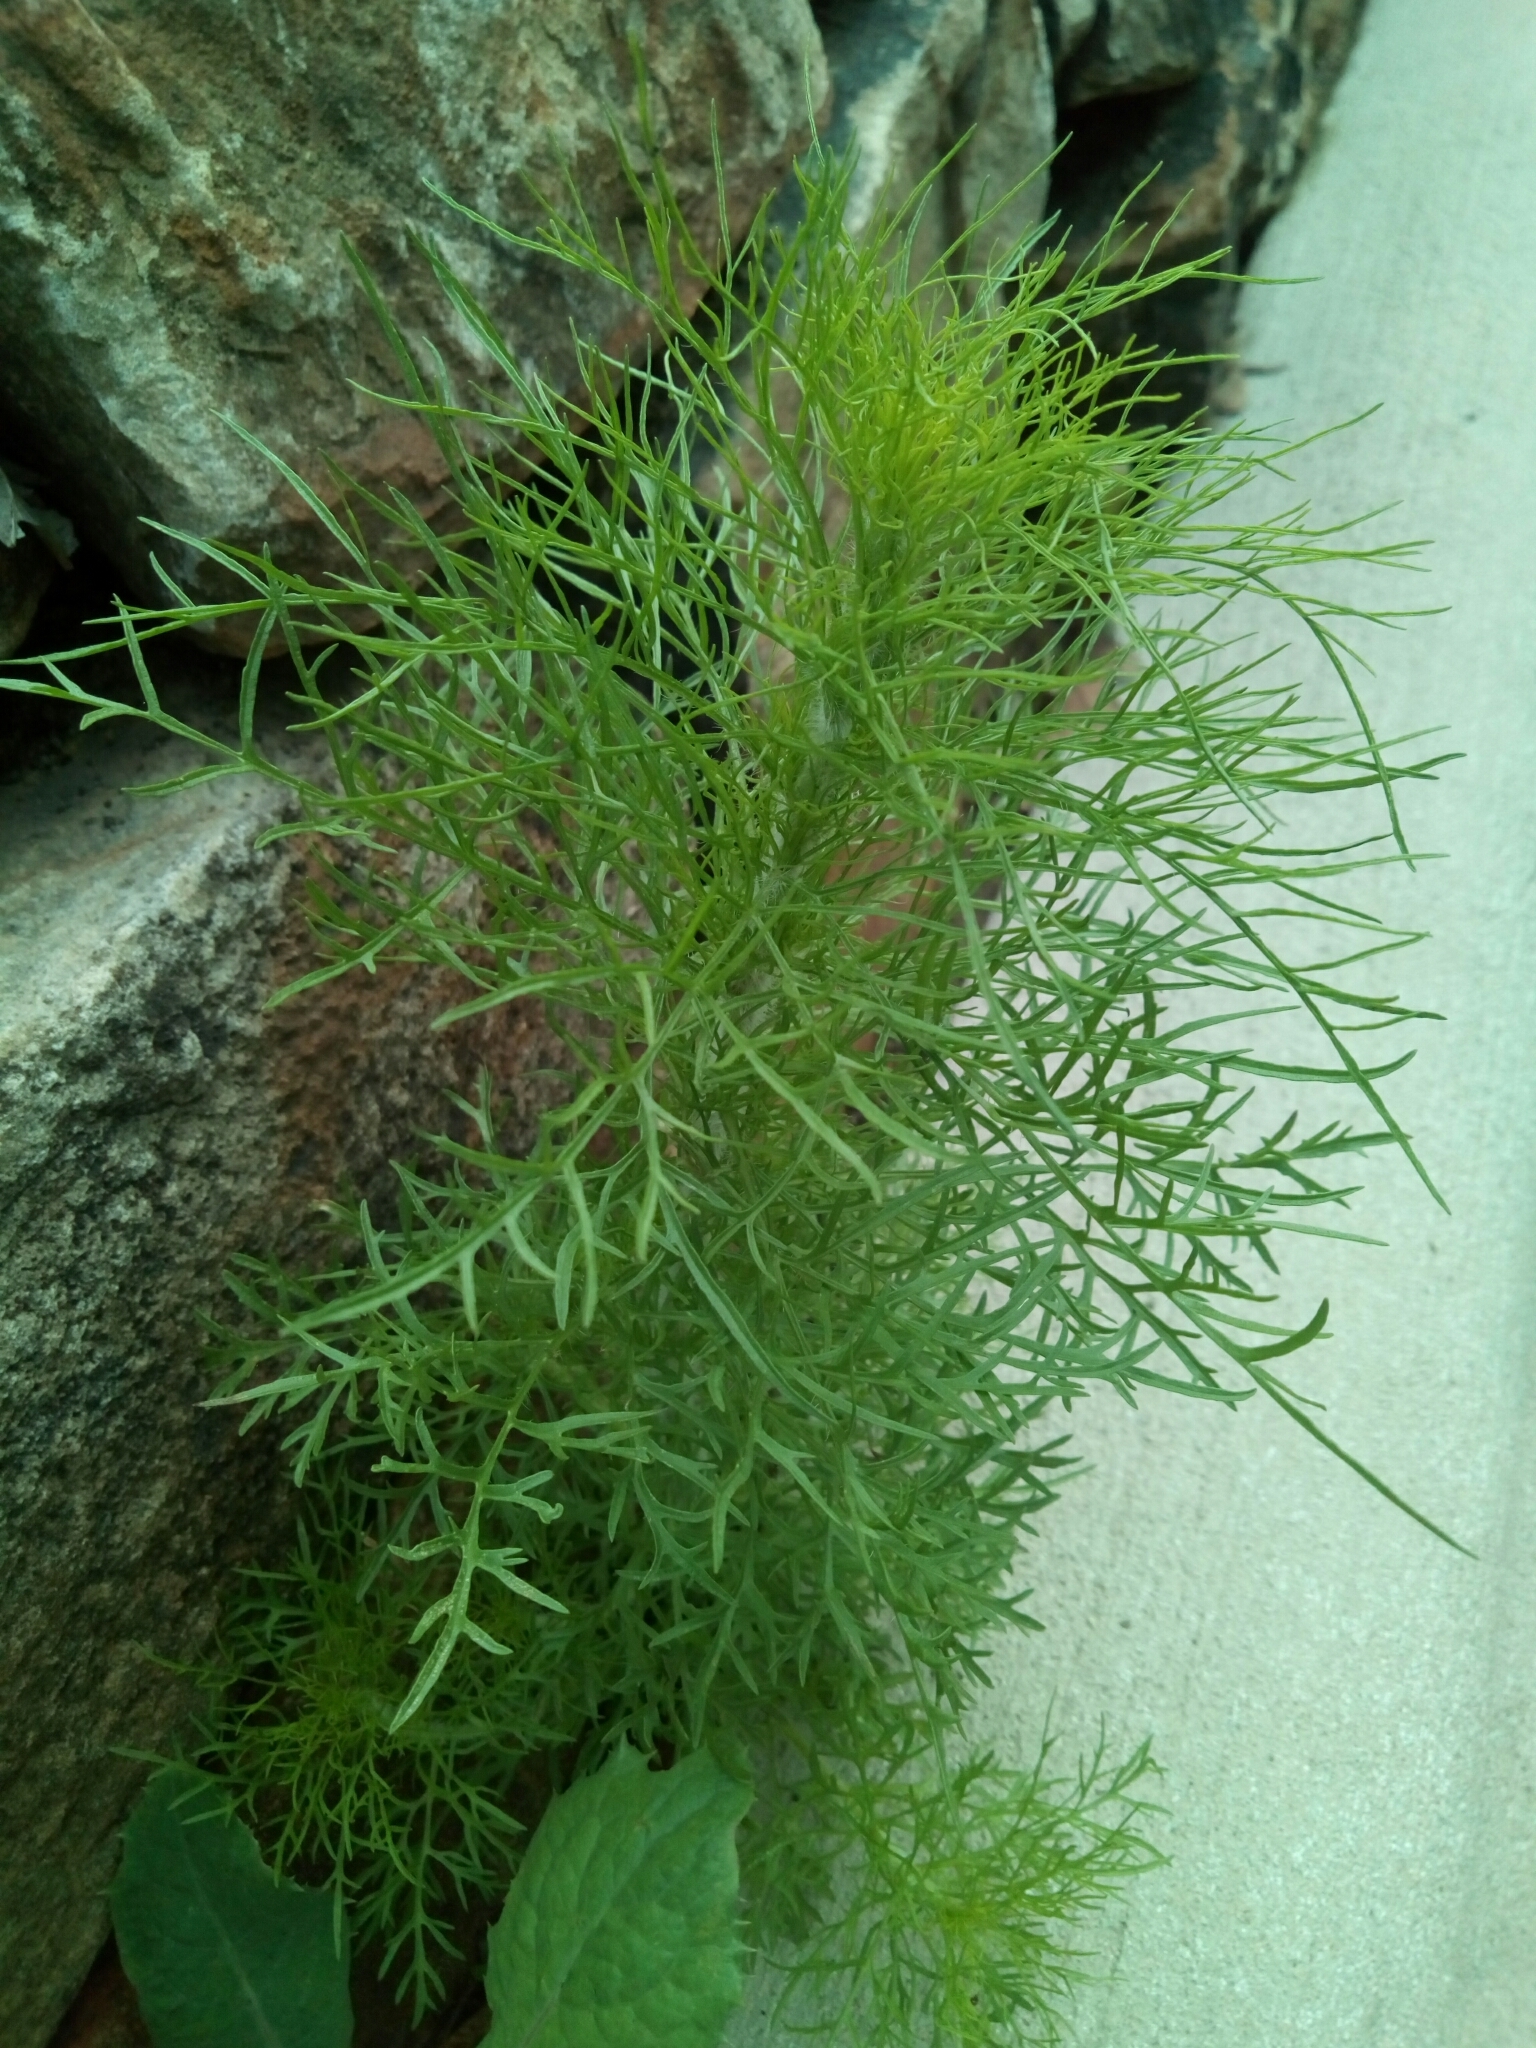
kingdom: Plantae
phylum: Tracheophyta
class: Magnoliopsida
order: Asterales
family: Asteraceae
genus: Eupatorium
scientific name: Eupatorium capillifolium
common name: Dog-fennel
